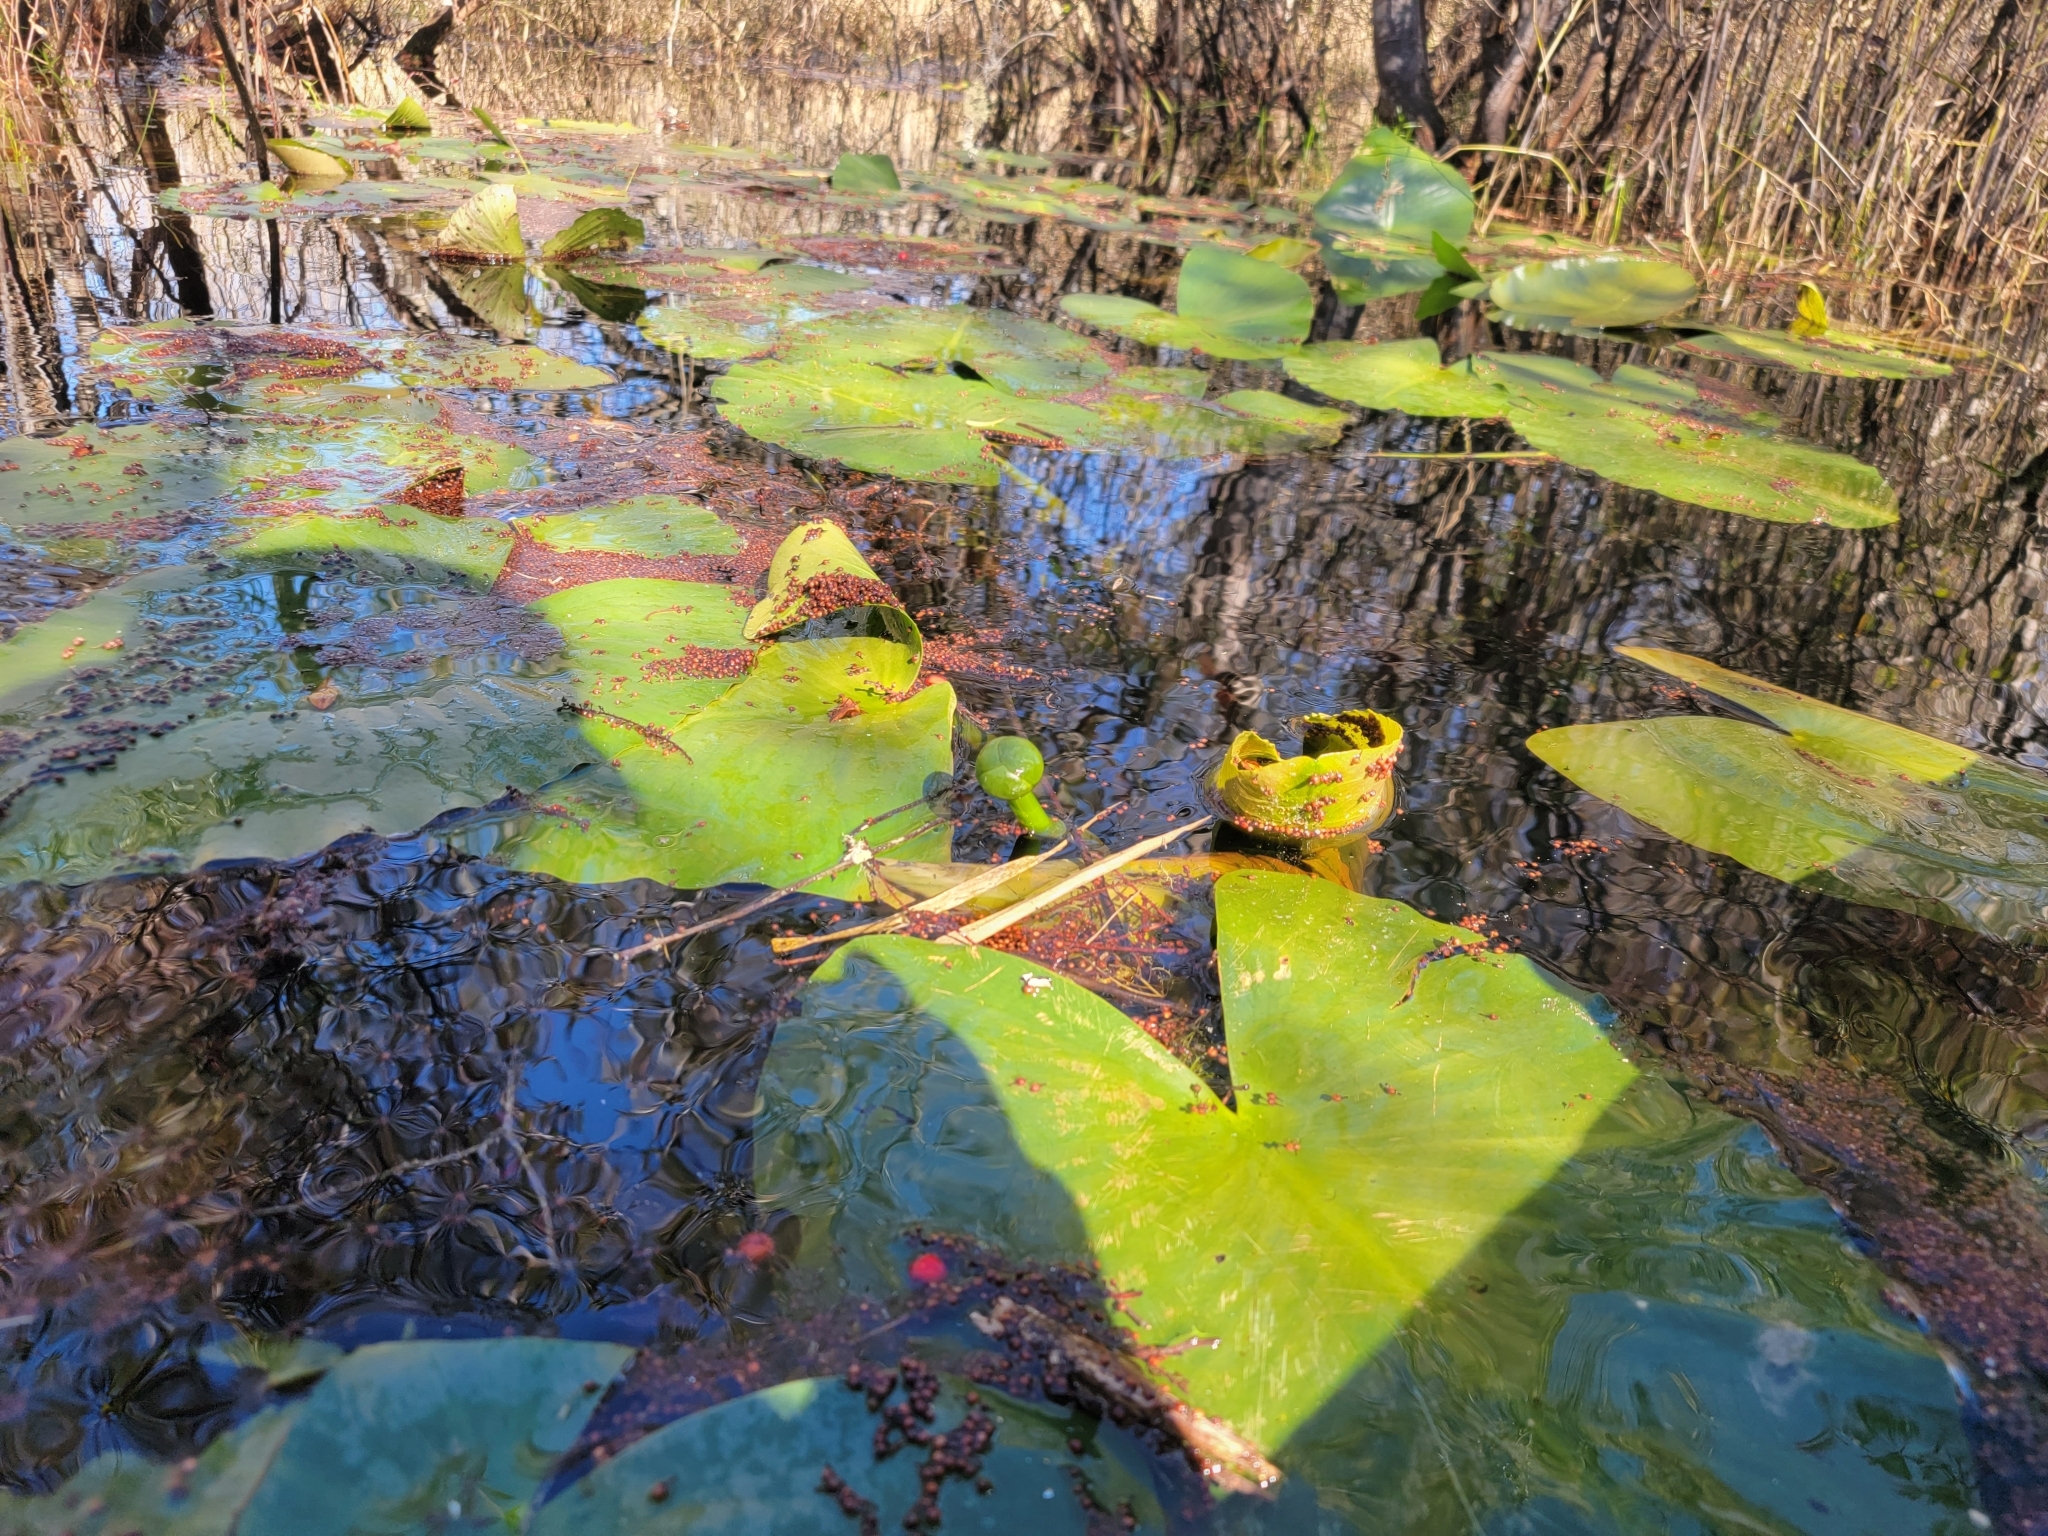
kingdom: Plantae
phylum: Tracheophyta
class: Magnoliopsida
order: Nymphaeales
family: Nymphaeaceae
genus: Nuphar
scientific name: Nuphar advena
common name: Spatter-dock
